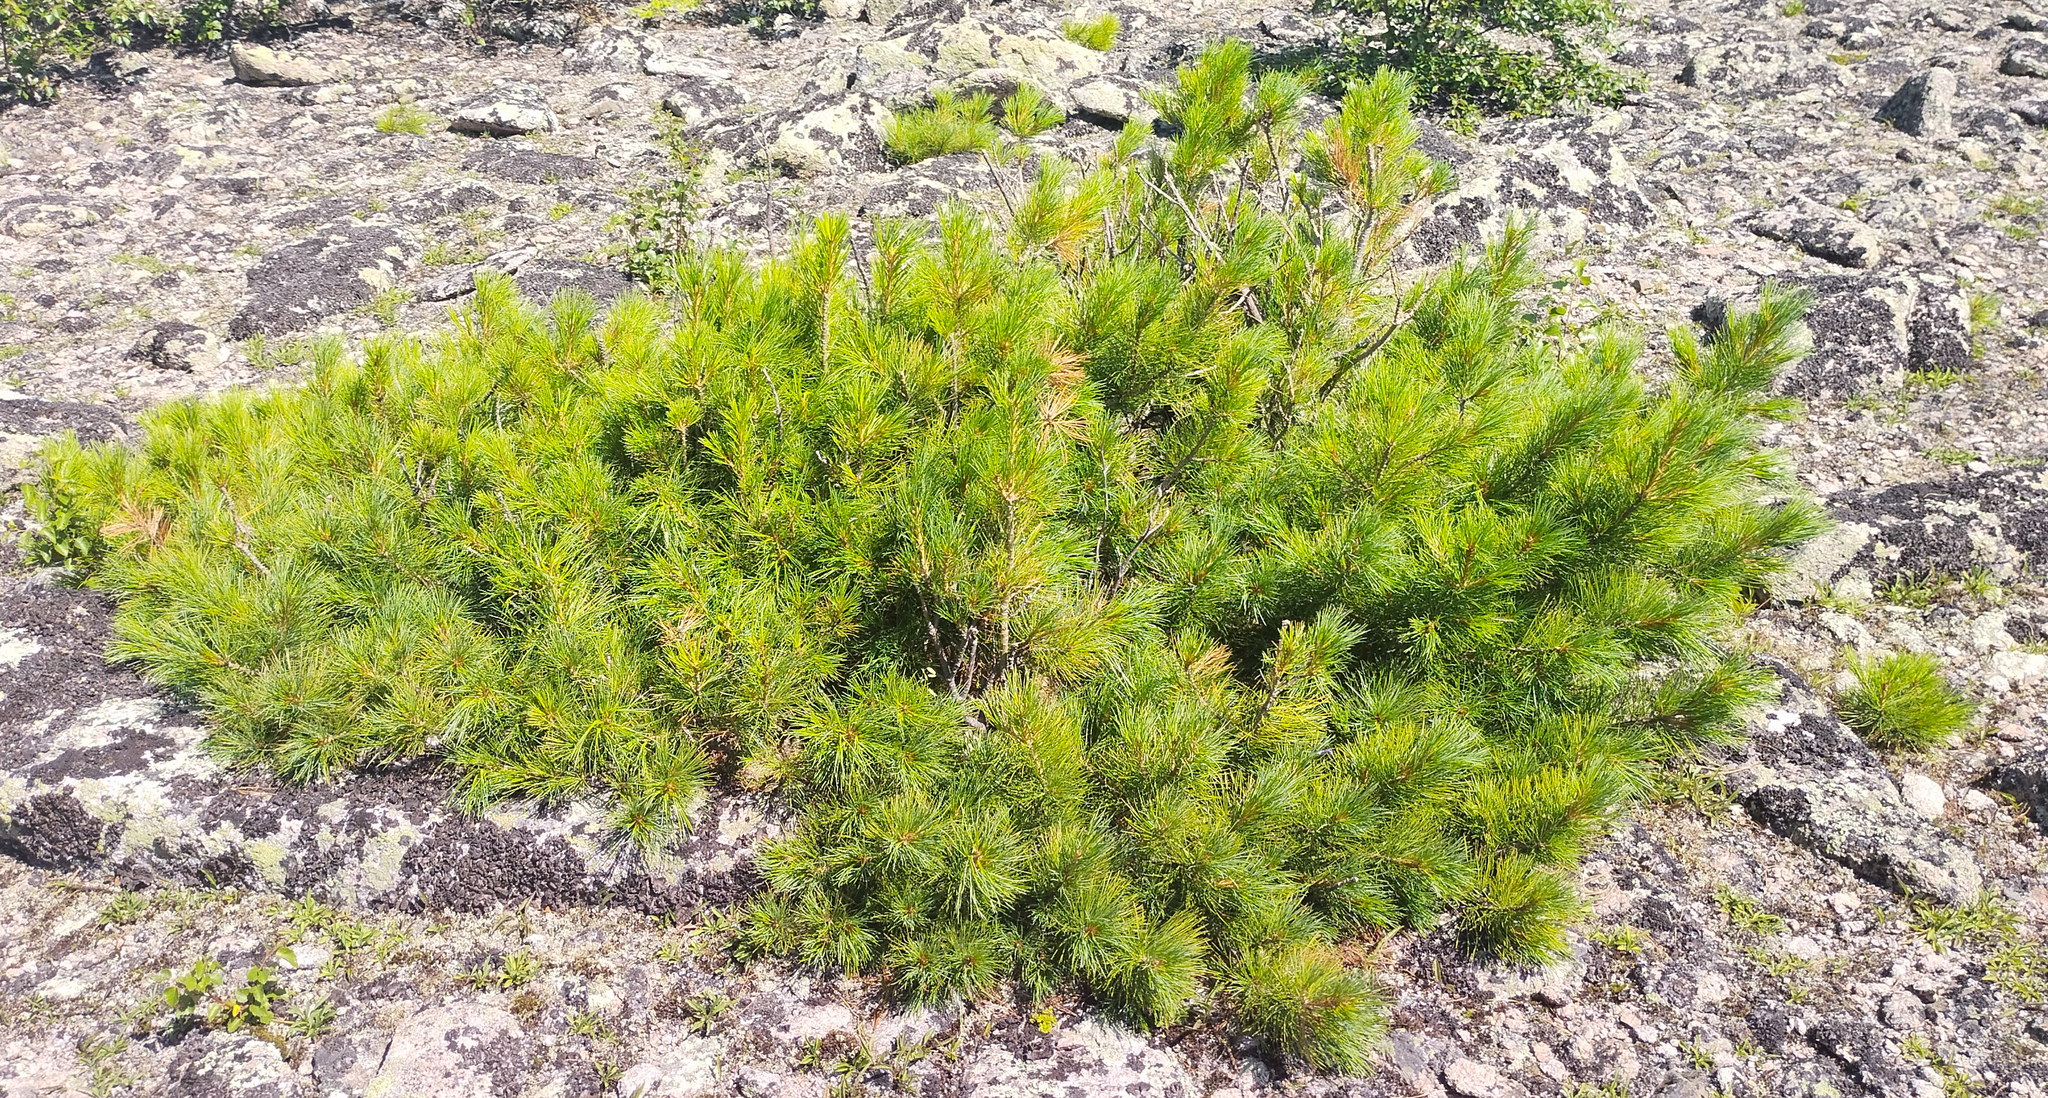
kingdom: Plantae
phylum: Tracheophyta
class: Pinopsida
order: Pinales
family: Pinaceae
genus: Pinus
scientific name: Pinus sibirica
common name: Siberian pine
